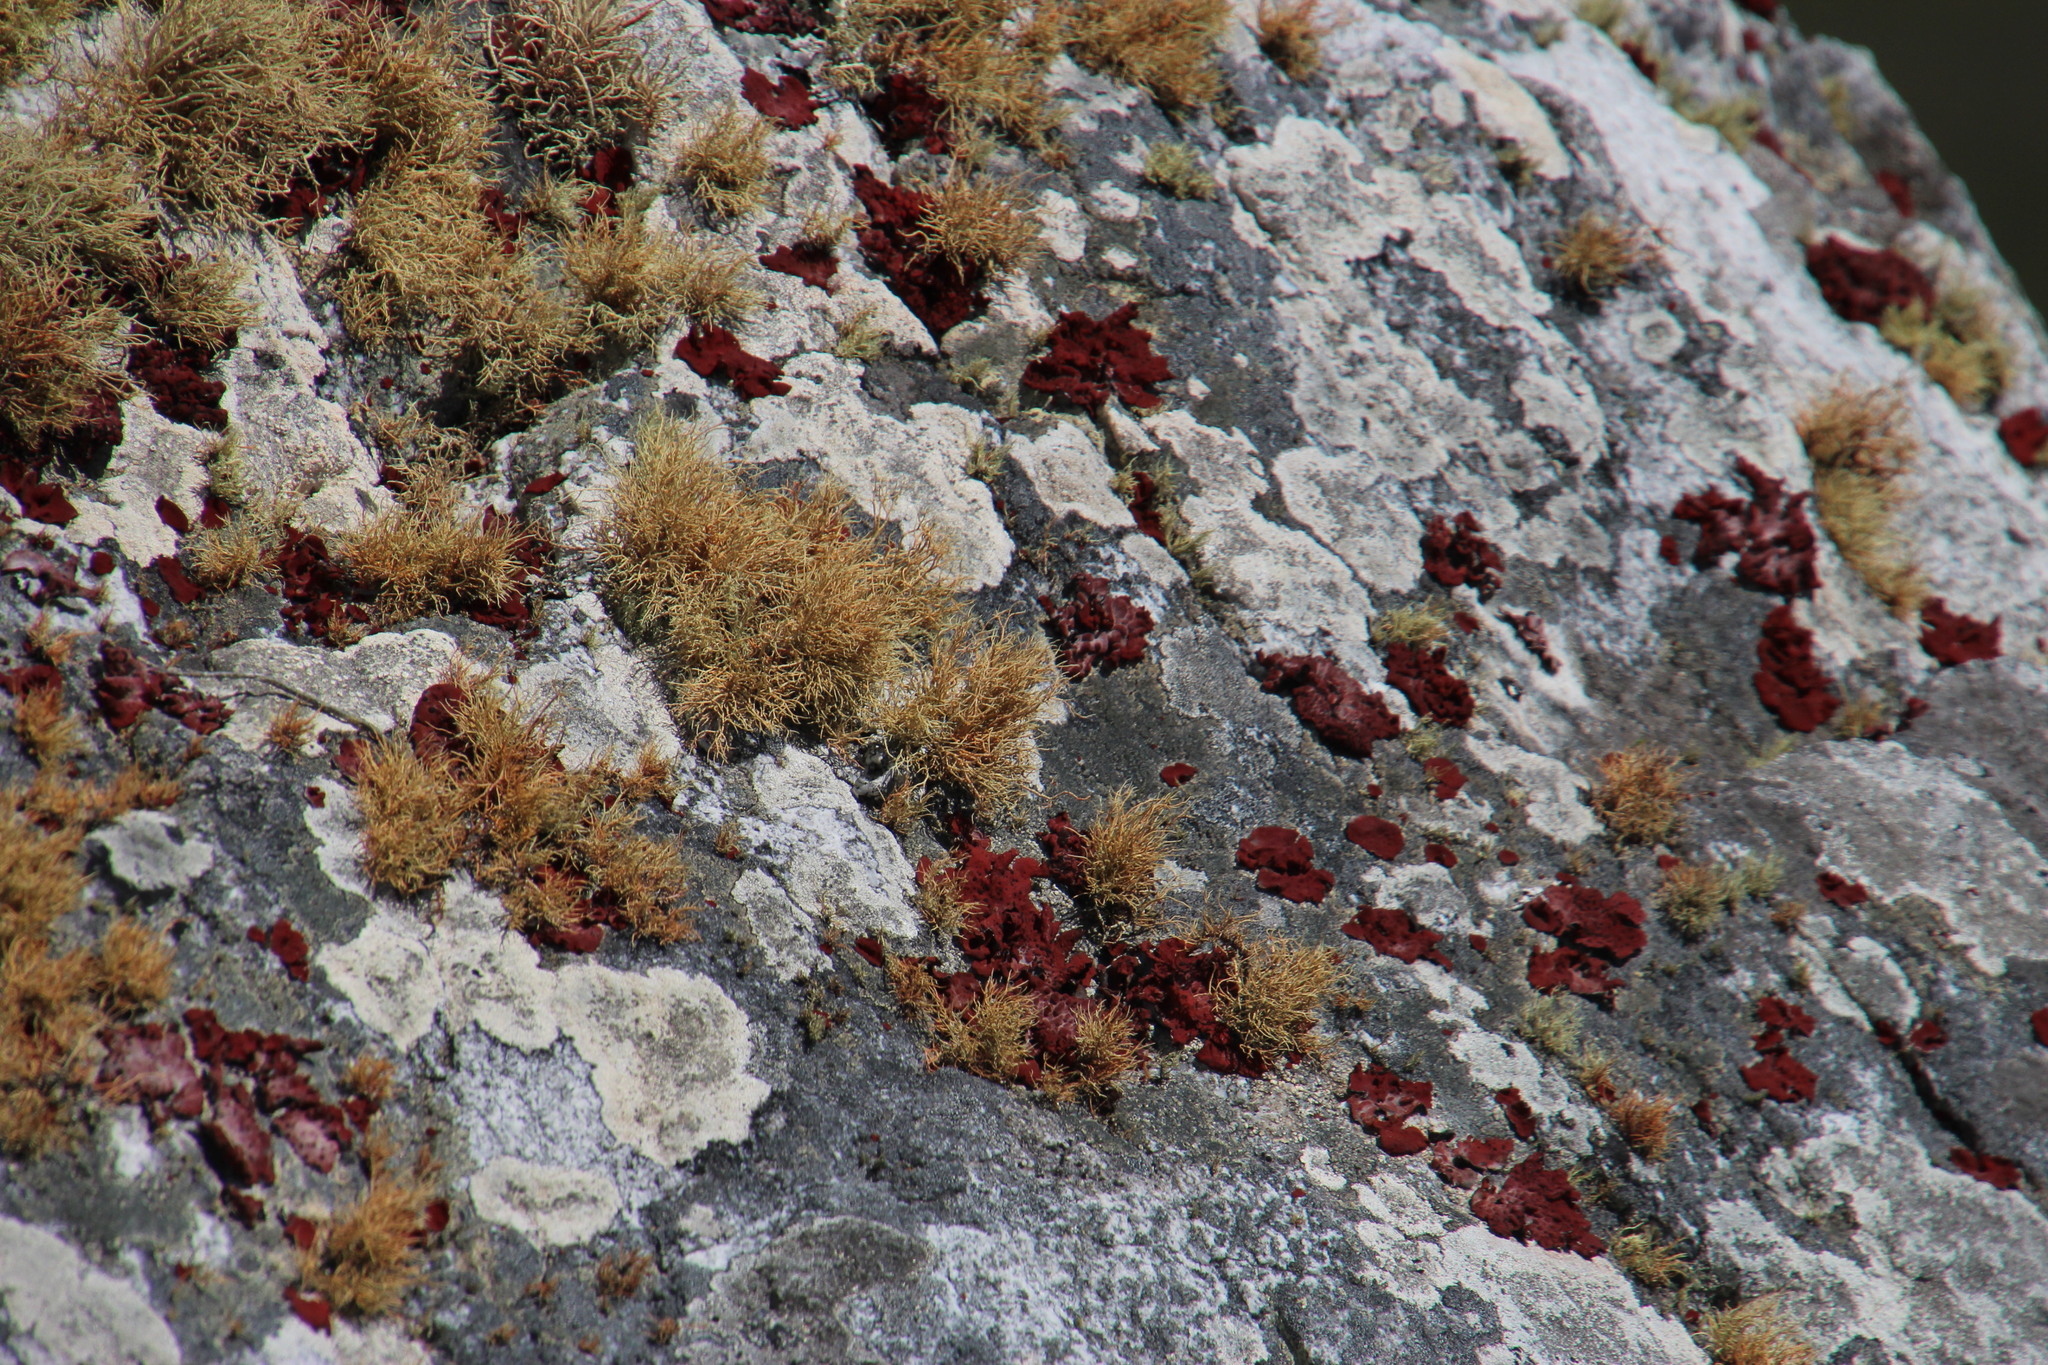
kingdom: Fungi
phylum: Ascomycota
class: Lecanoromycetes
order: Lecanorales
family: Parmeliaceae
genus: Usnea
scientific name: Usnea maculata
